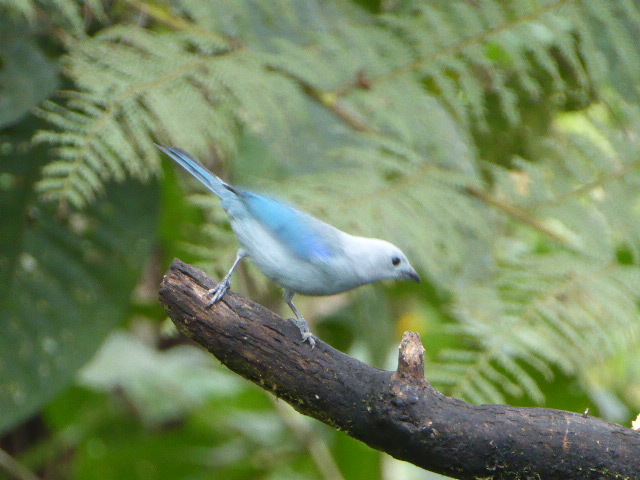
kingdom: Animalia
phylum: Chordata
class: Aves
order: Passeriformes
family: Thraupidae
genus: Thraupis
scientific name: Thraupis episcopus
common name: Blue-grey tanager
